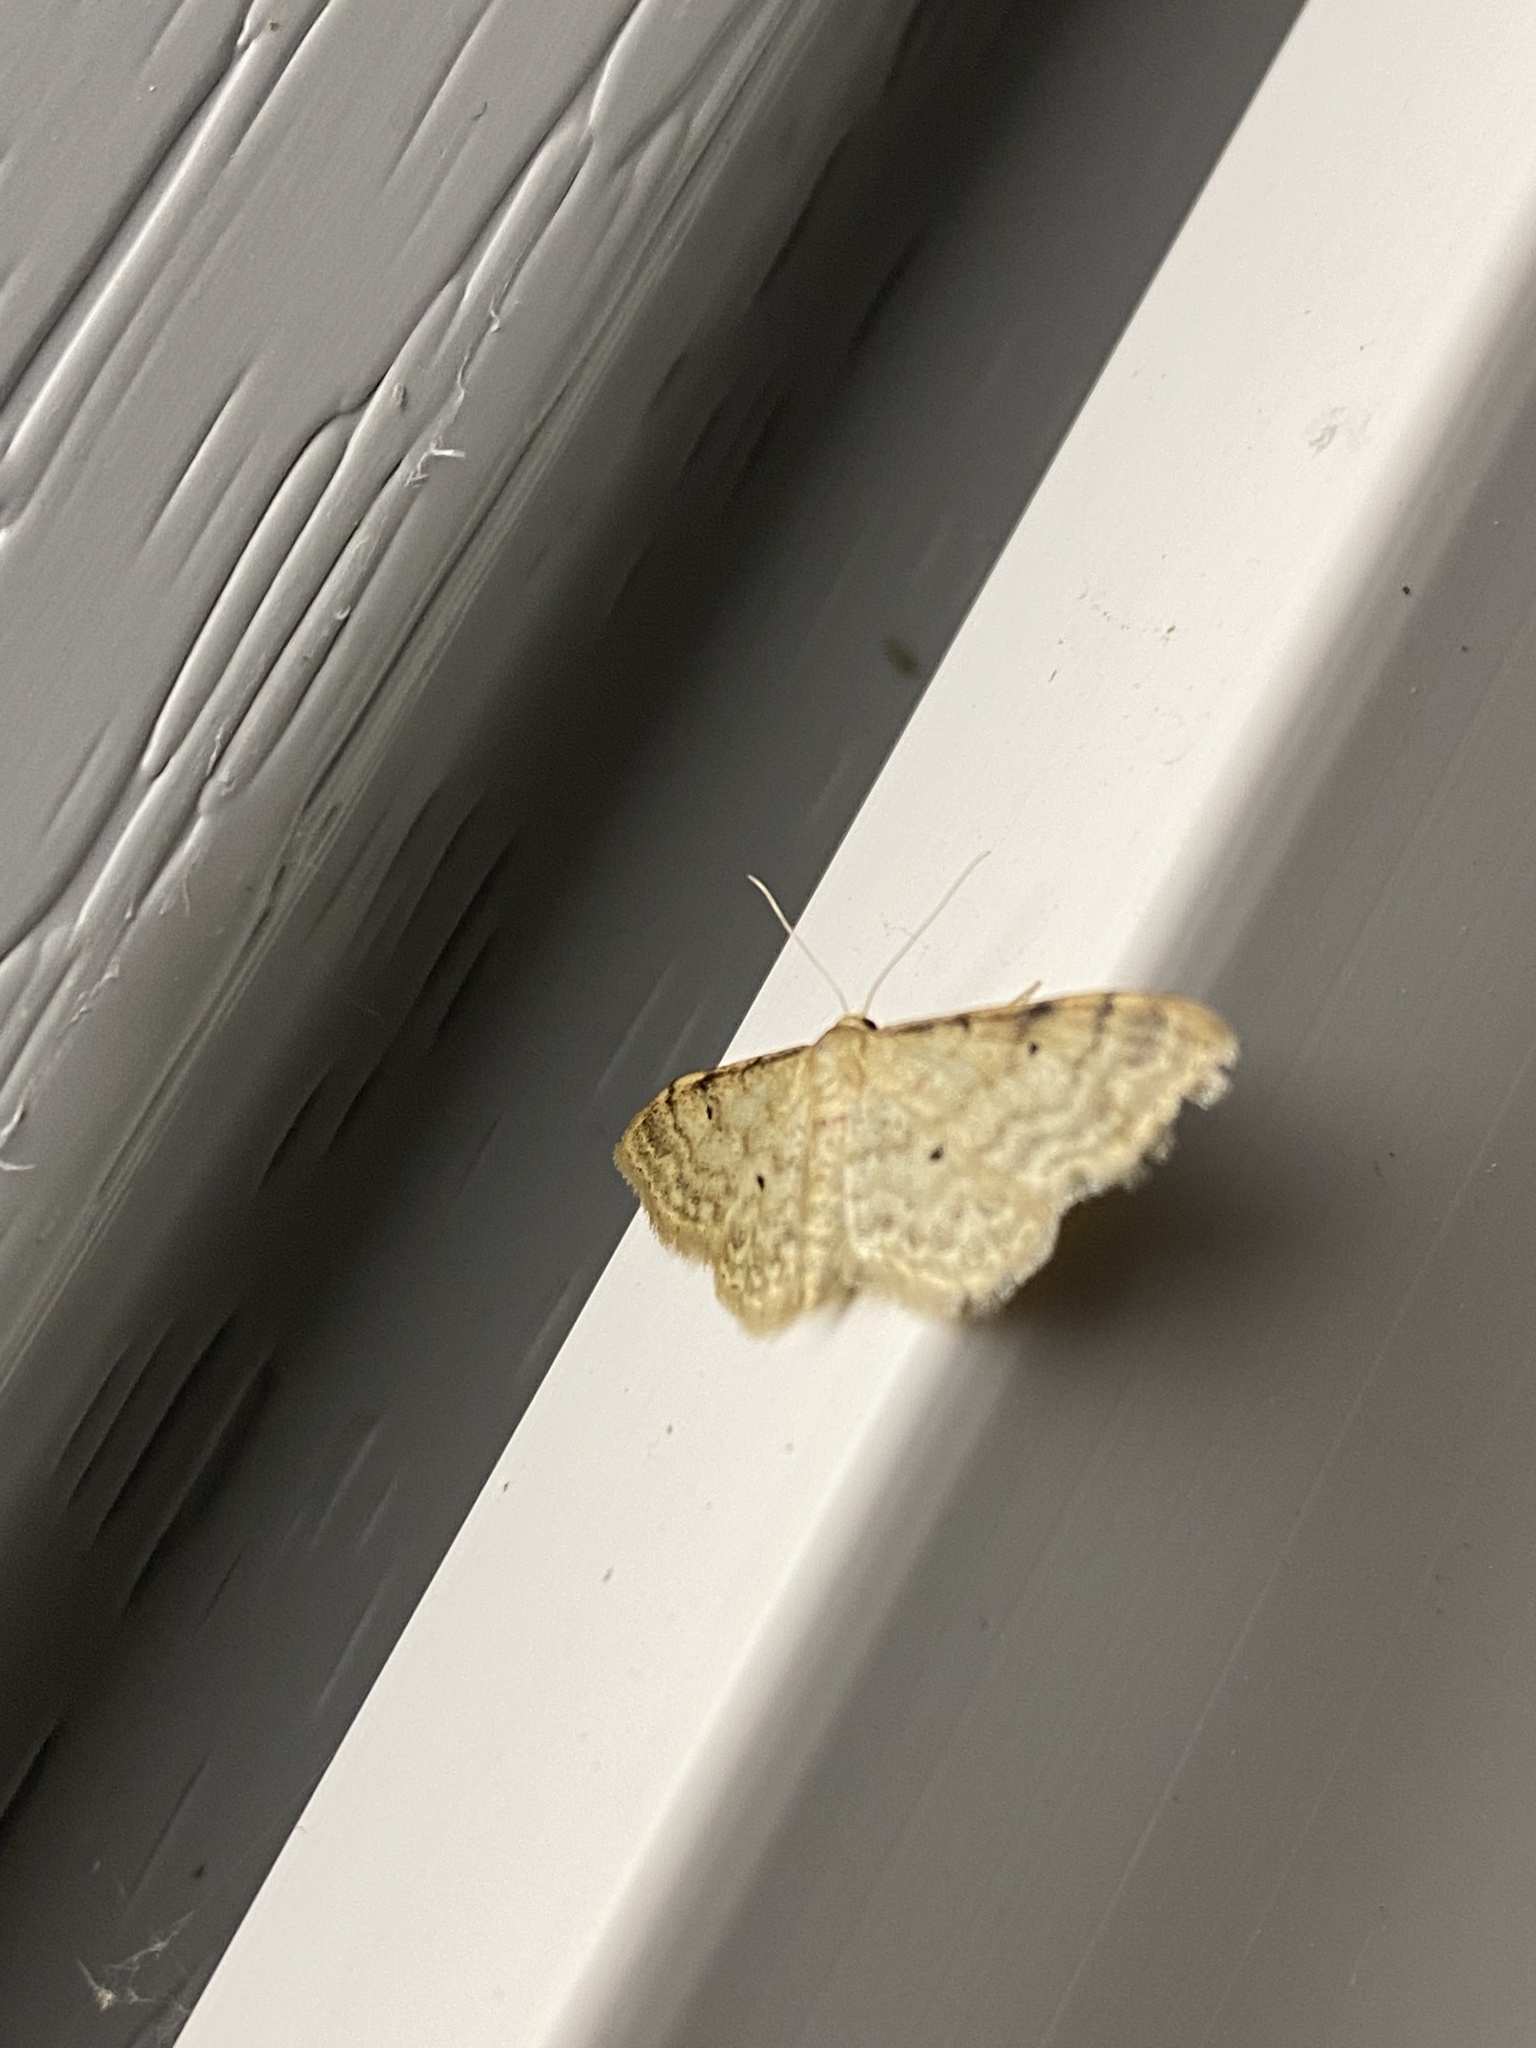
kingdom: Animalia
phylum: Arthropoda
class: Insecta
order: Lepidoptera
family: Geometridae
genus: Idaea
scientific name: Idaea fuscovenosa
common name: Dwarf cream wave
